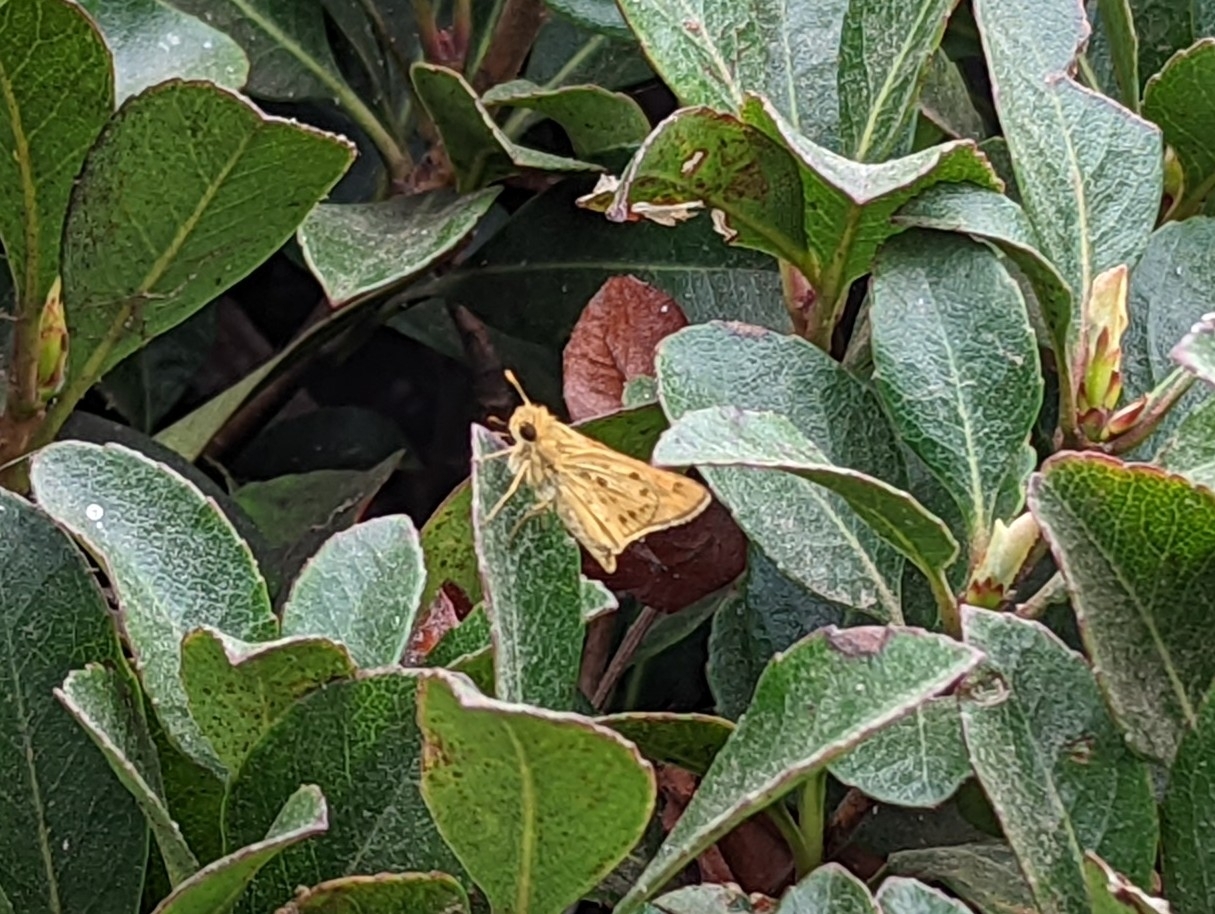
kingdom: Animalia
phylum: Arthropoda
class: Insecta
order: Lepidoptera
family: Hesperiidae
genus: Hylephila
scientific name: Hylephila phyleus
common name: Fiery skipper
